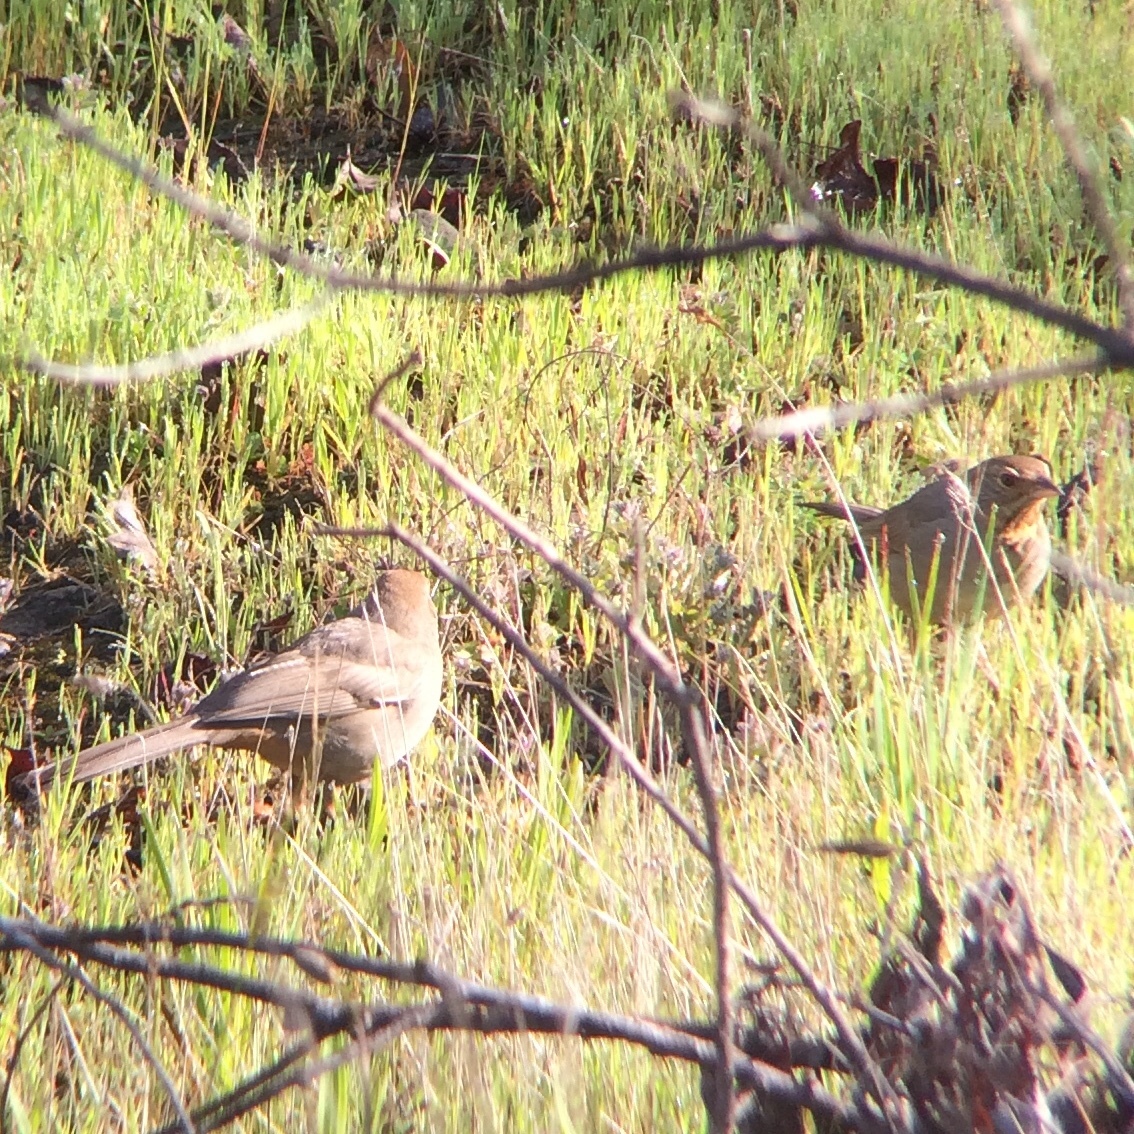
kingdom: Animalia
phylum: Chordata
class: Aves
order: Passeriformes
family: Passerellidae
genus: Melozone
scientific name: Melozone crissalis
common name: California towhee
